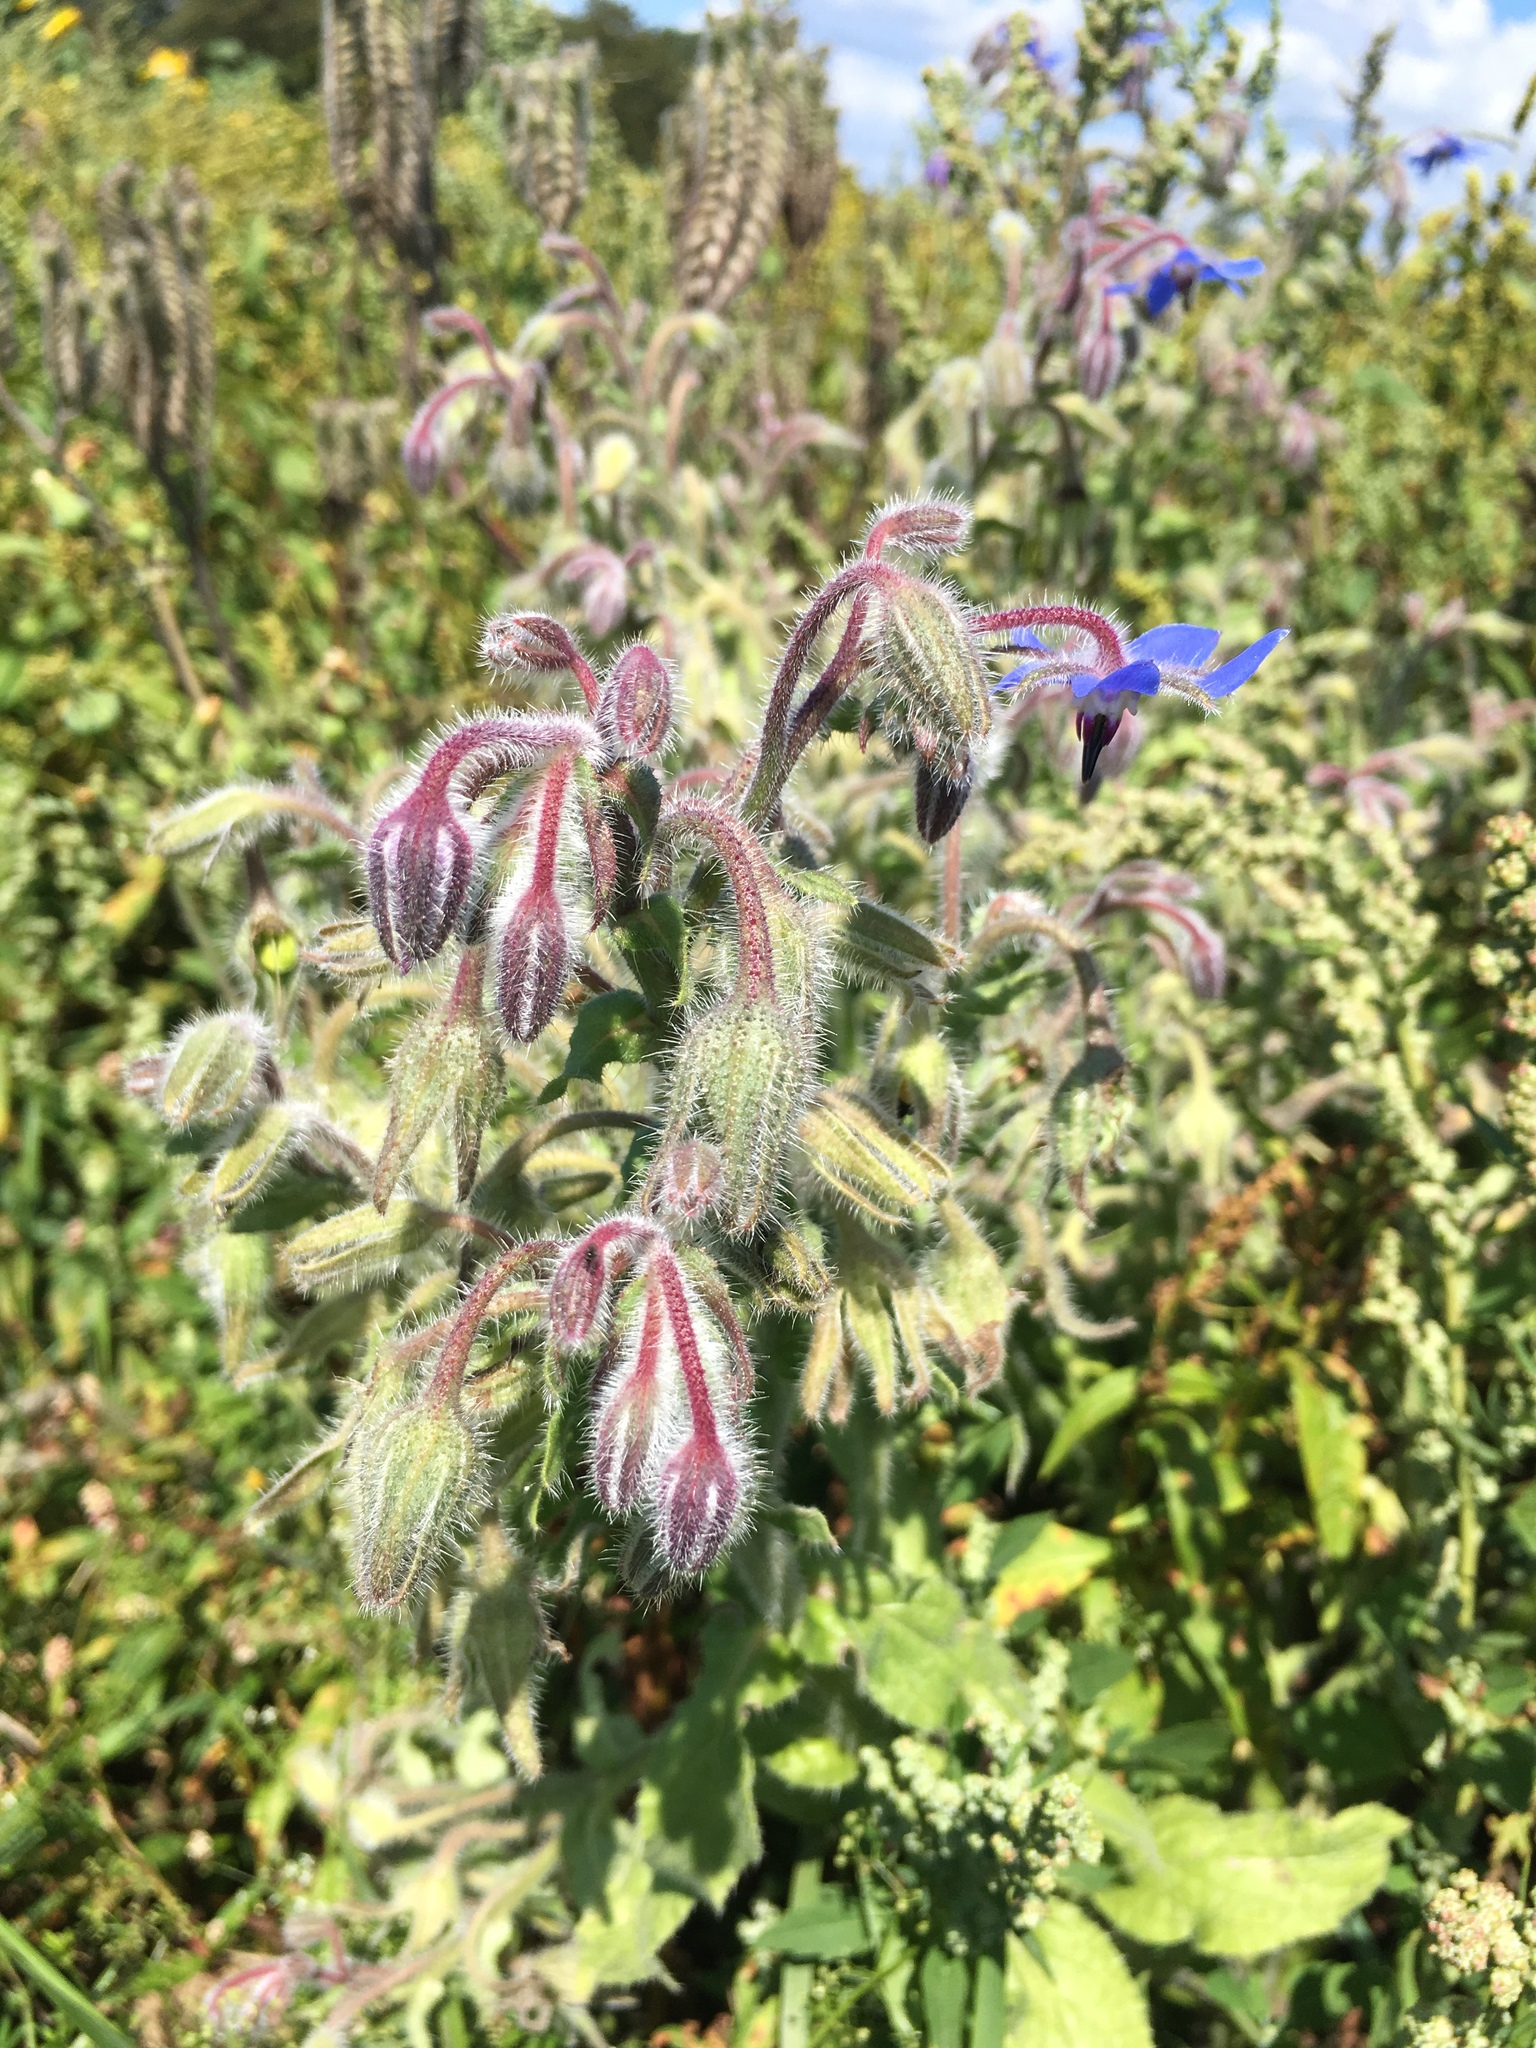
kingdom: Plantae
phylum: Tracheophyta
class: Magnoliopsida
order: Boraginales
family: Boraginaceae
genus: Borago
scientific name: Borago officinalis
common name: Borage
